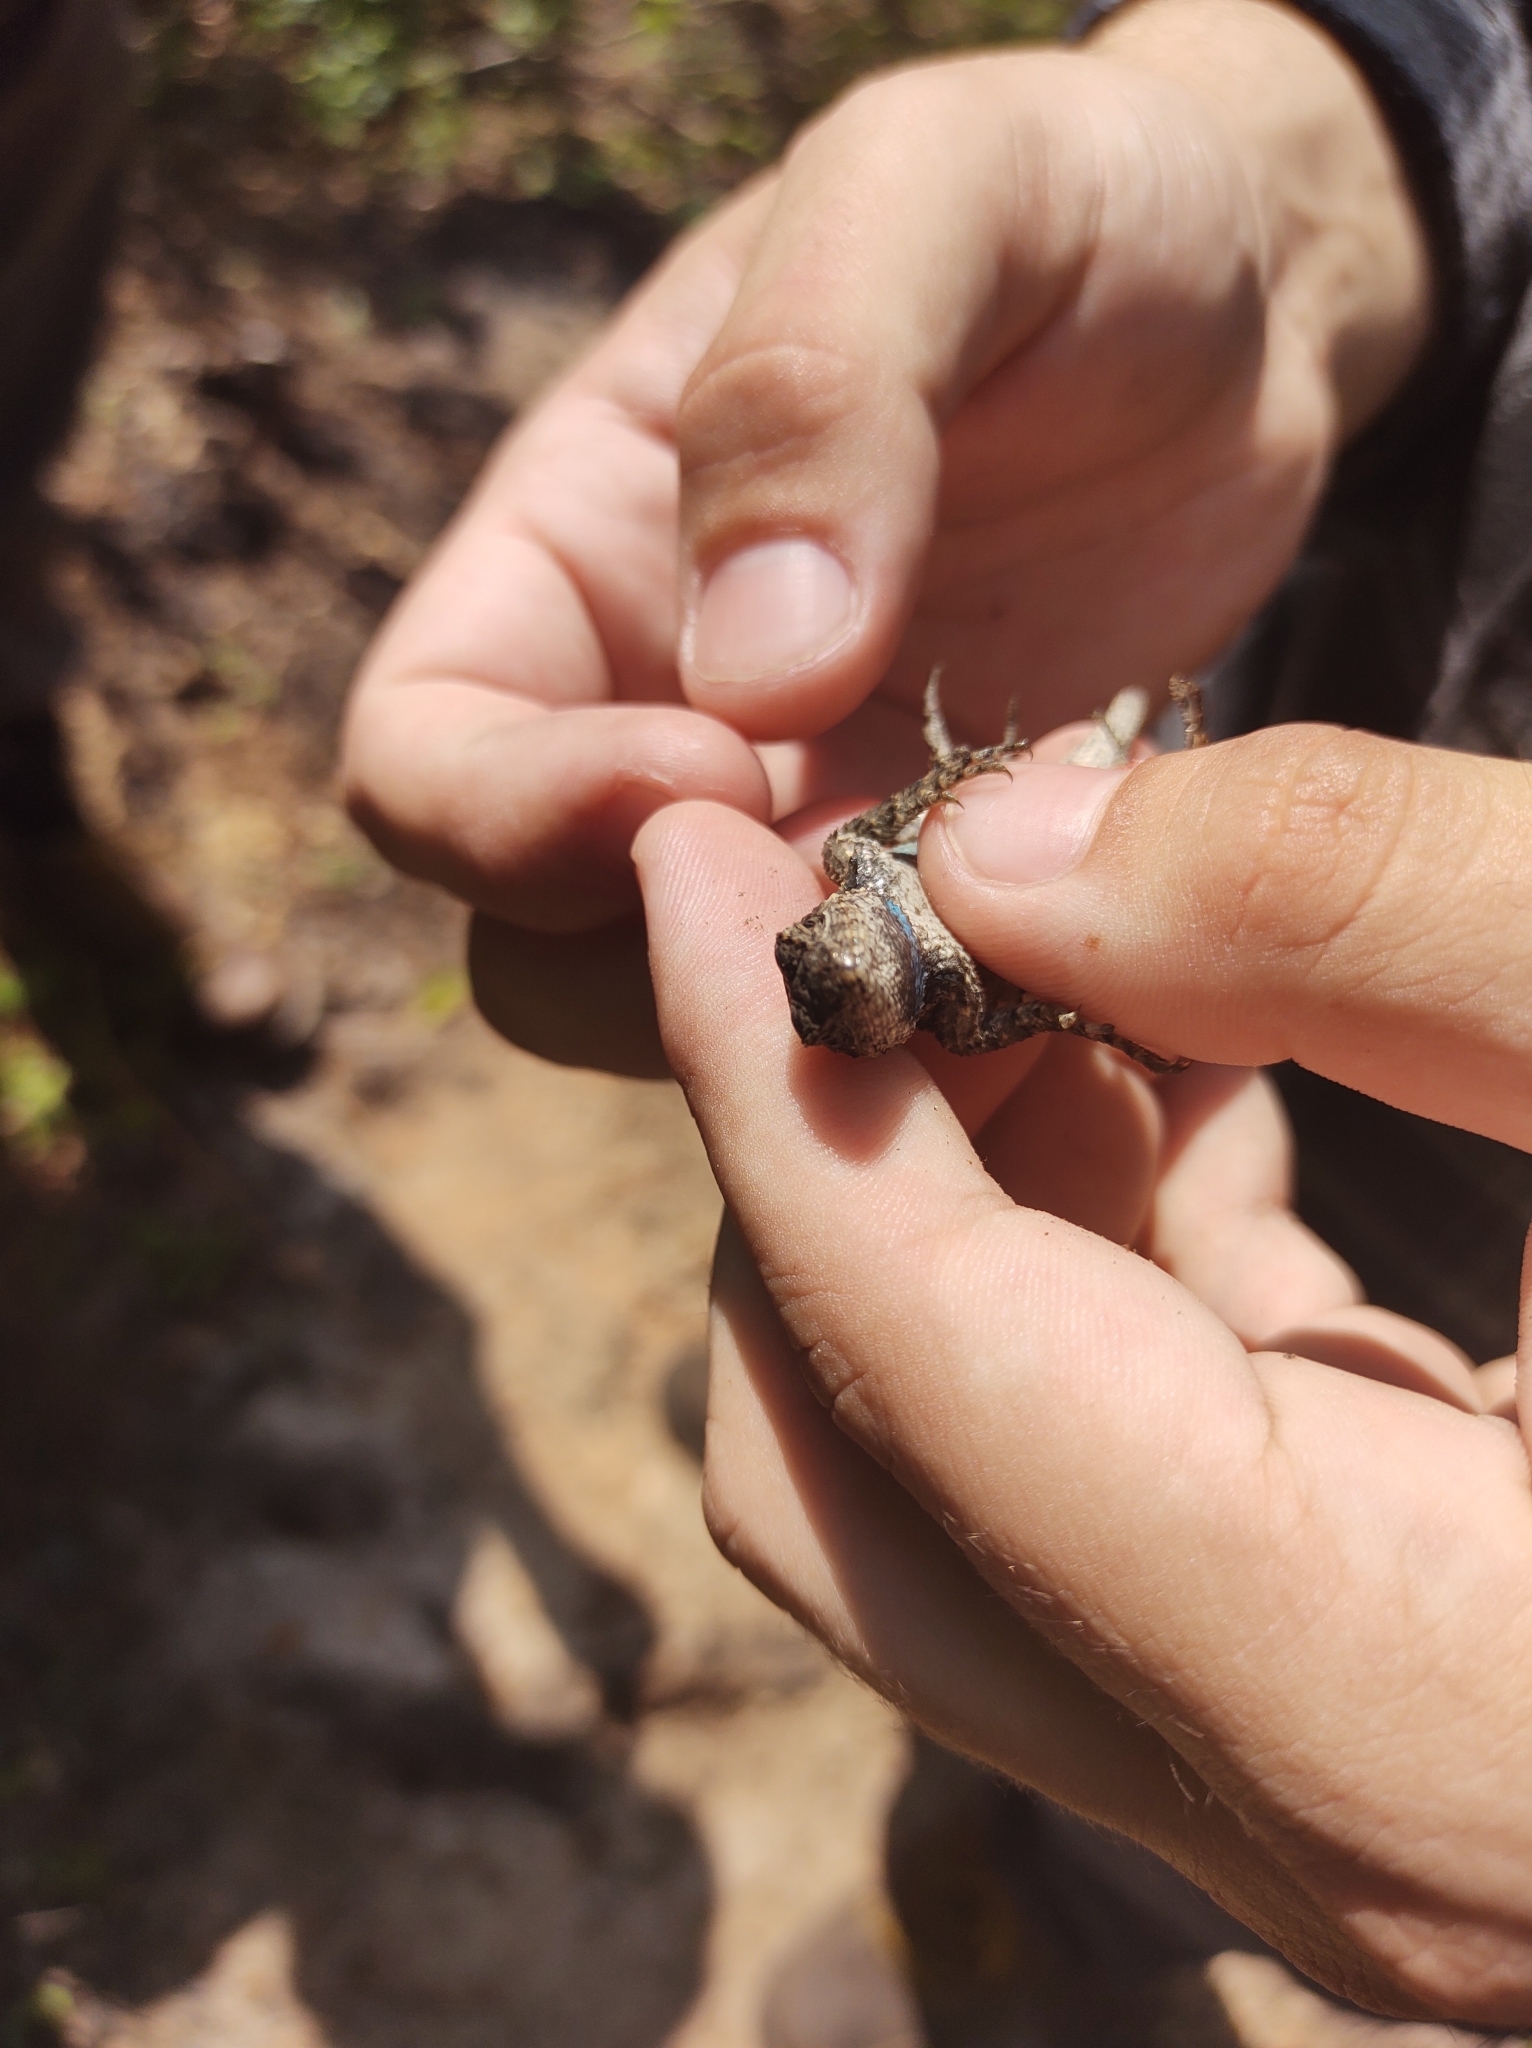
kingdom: Animalia
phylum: Chordata
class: Squamata
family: Phrynosomatidae
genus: Sceloporus
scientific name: Sceloporus undulatus
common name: Eastern fence lizard
